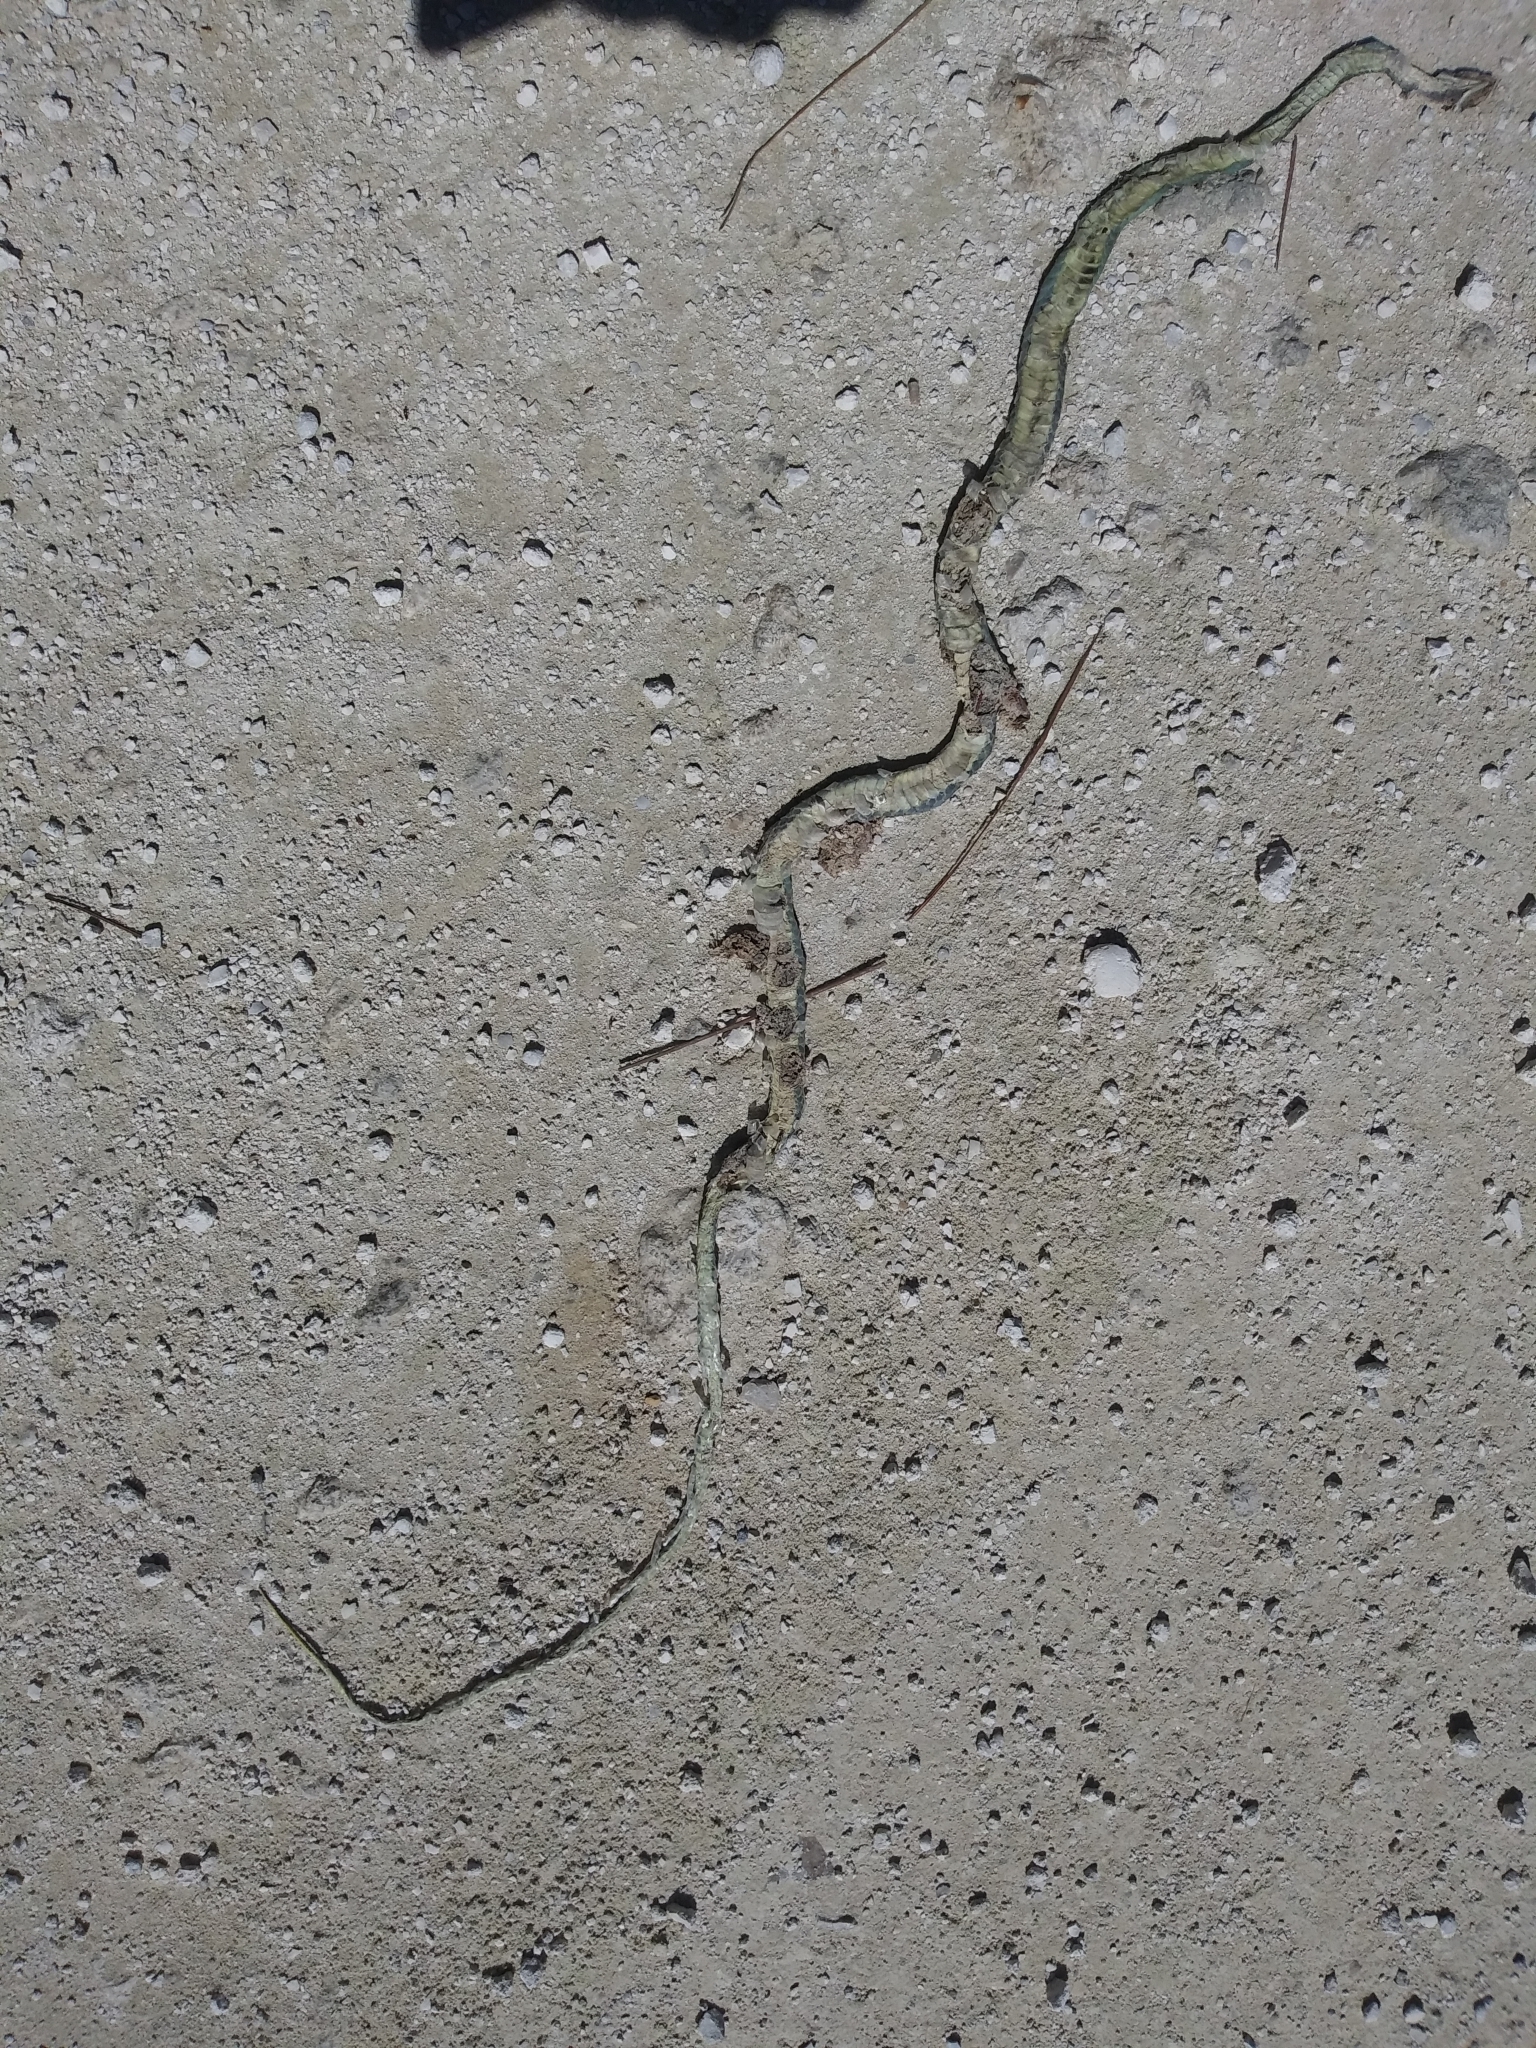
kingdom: Animalia
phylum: Chordata
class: Squamata
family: Colubridae
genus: Opheodrys
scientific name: Opheodrys aestivus
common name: Rough greensnake
